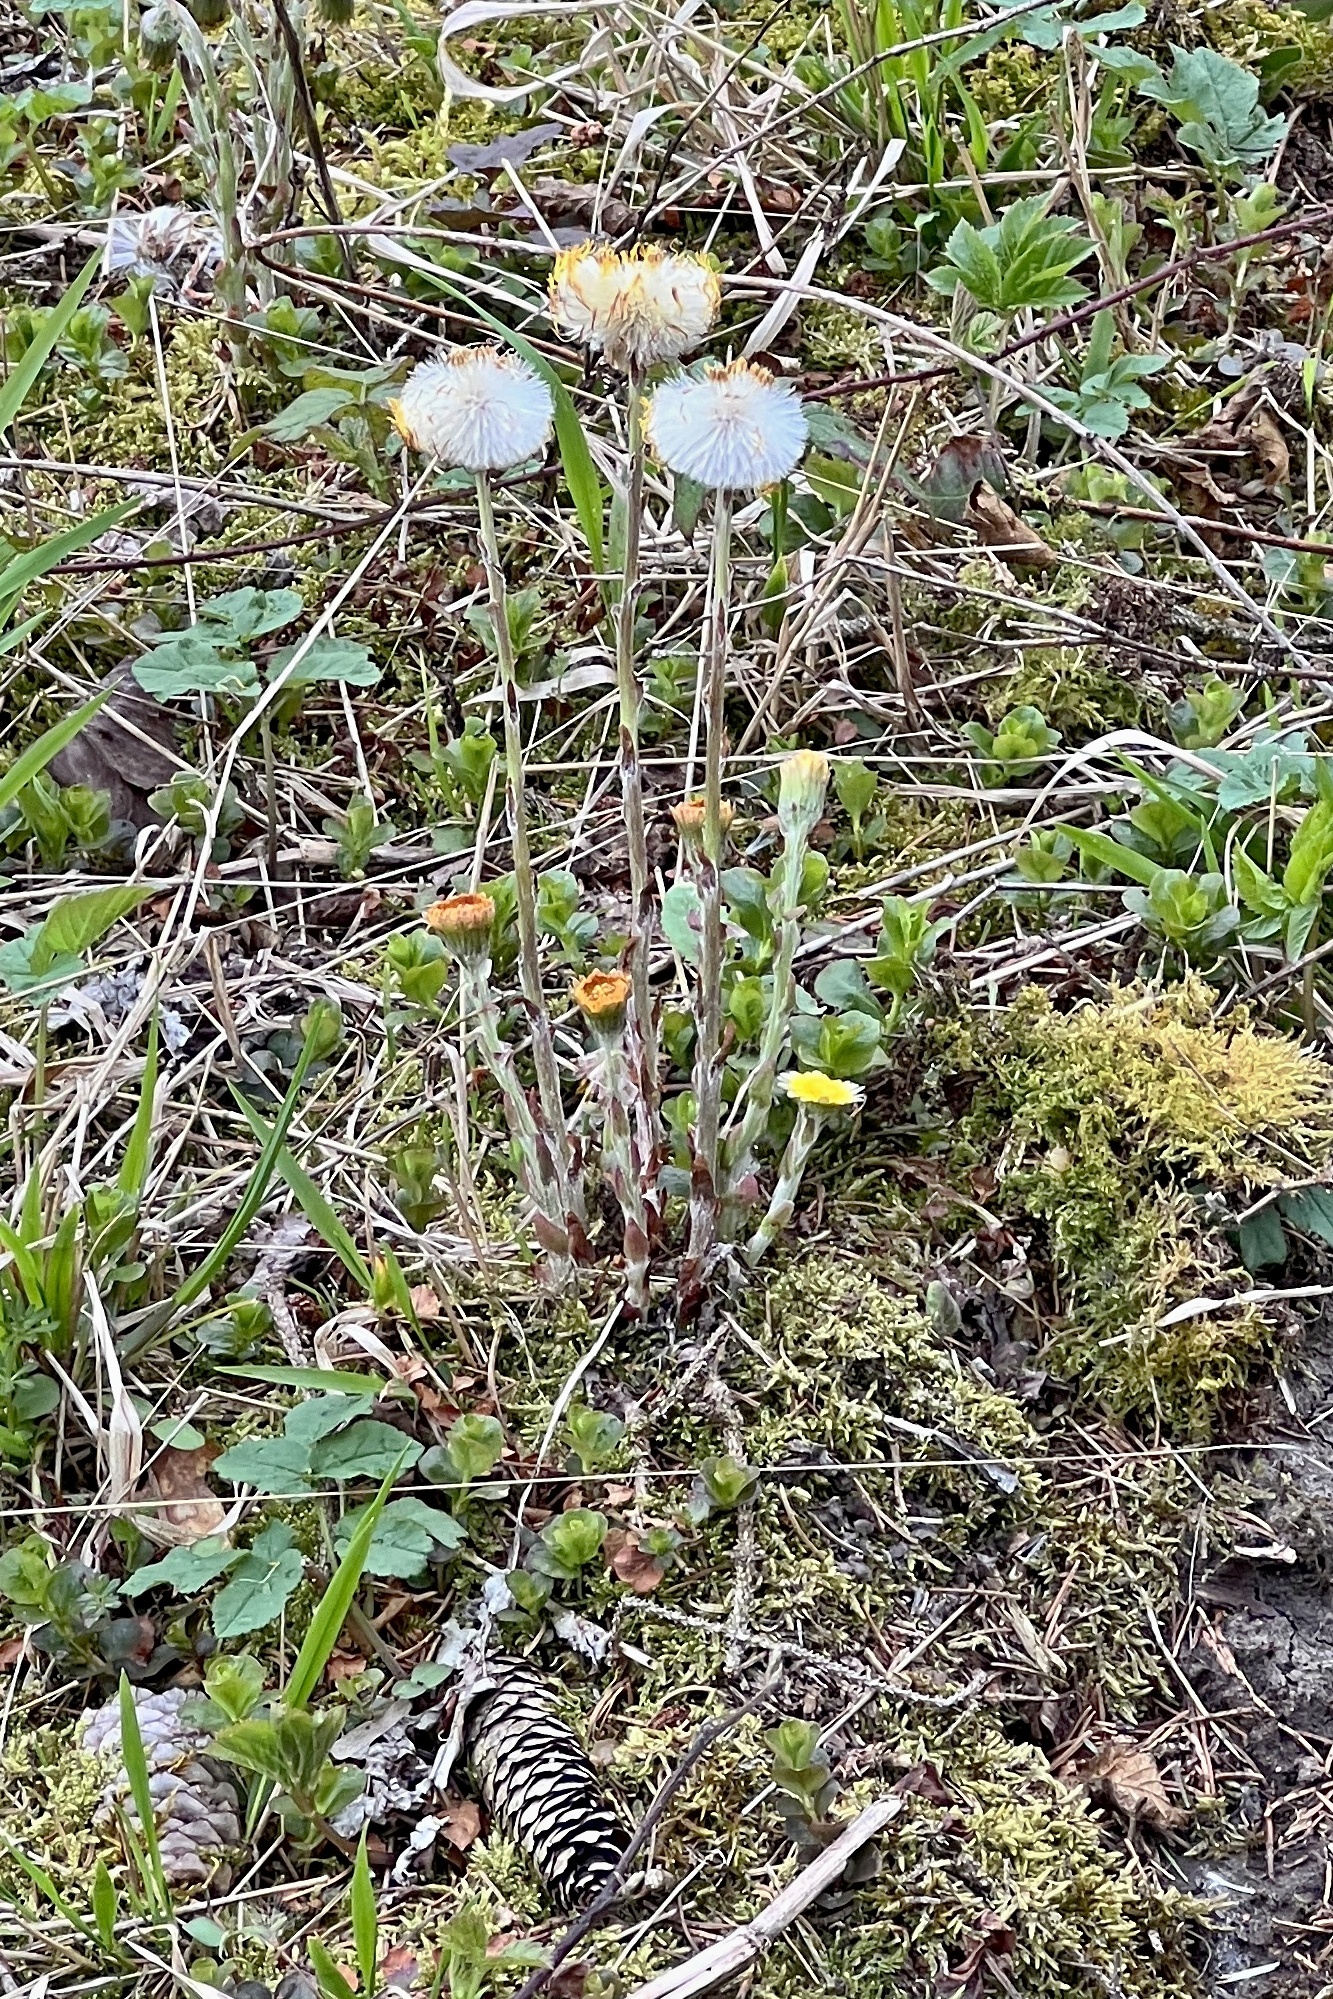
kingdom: Plantae
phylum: Tracheophyta
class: Magnoliopsida
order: Asterales
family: Asteraceae
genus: Tussilago
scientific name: Tussilago farfara
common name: Coltsfoot
